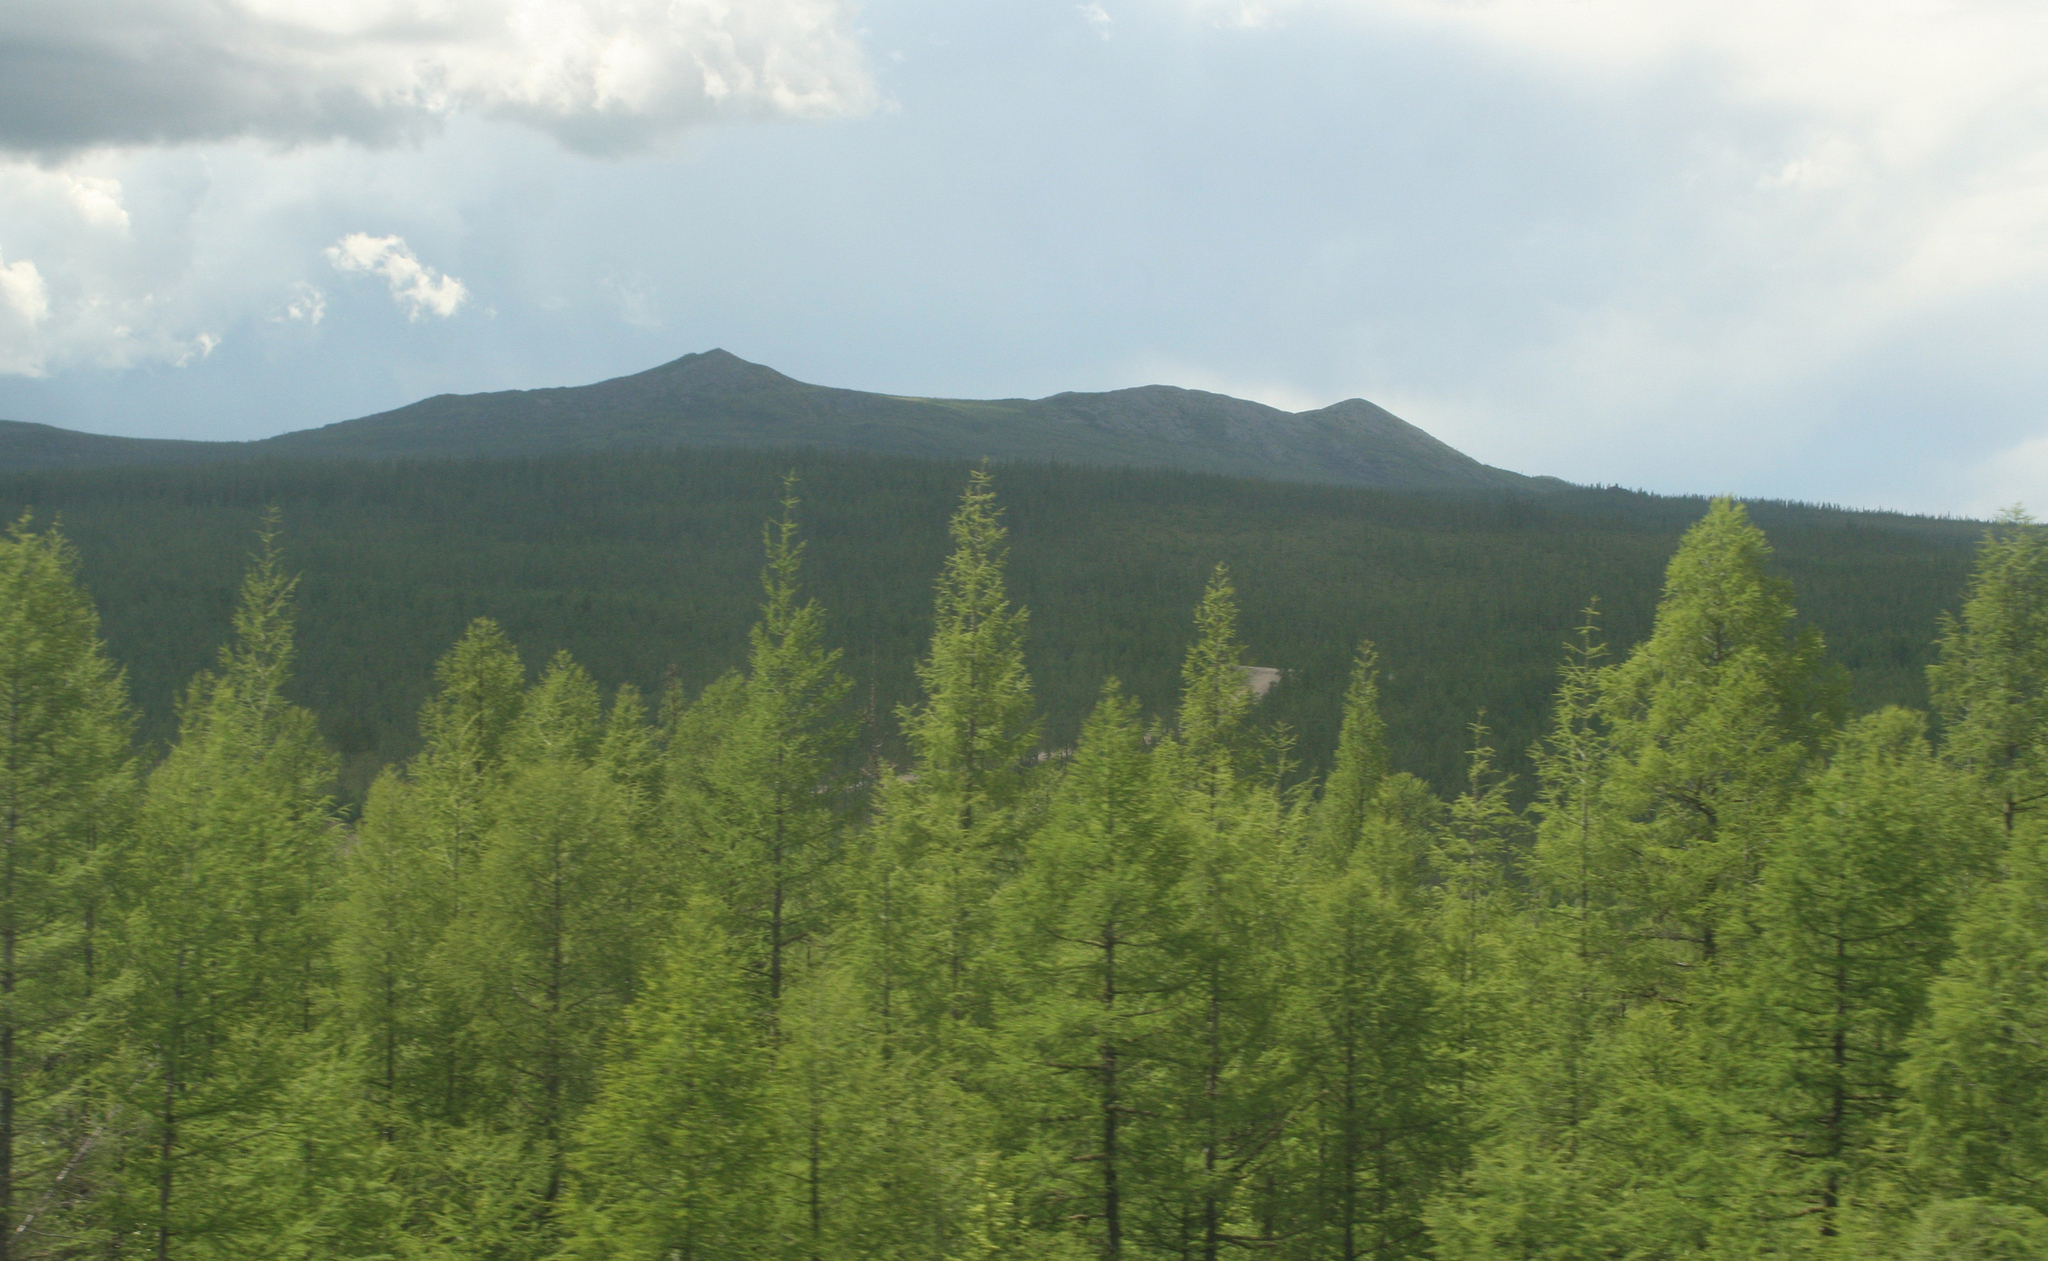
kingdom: Plantae
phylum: Tracheophyta
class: Pinopsida
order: Pinales
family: Pinaceae
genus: Larix
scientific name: Larix gmelinii
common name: Dahurian larch
